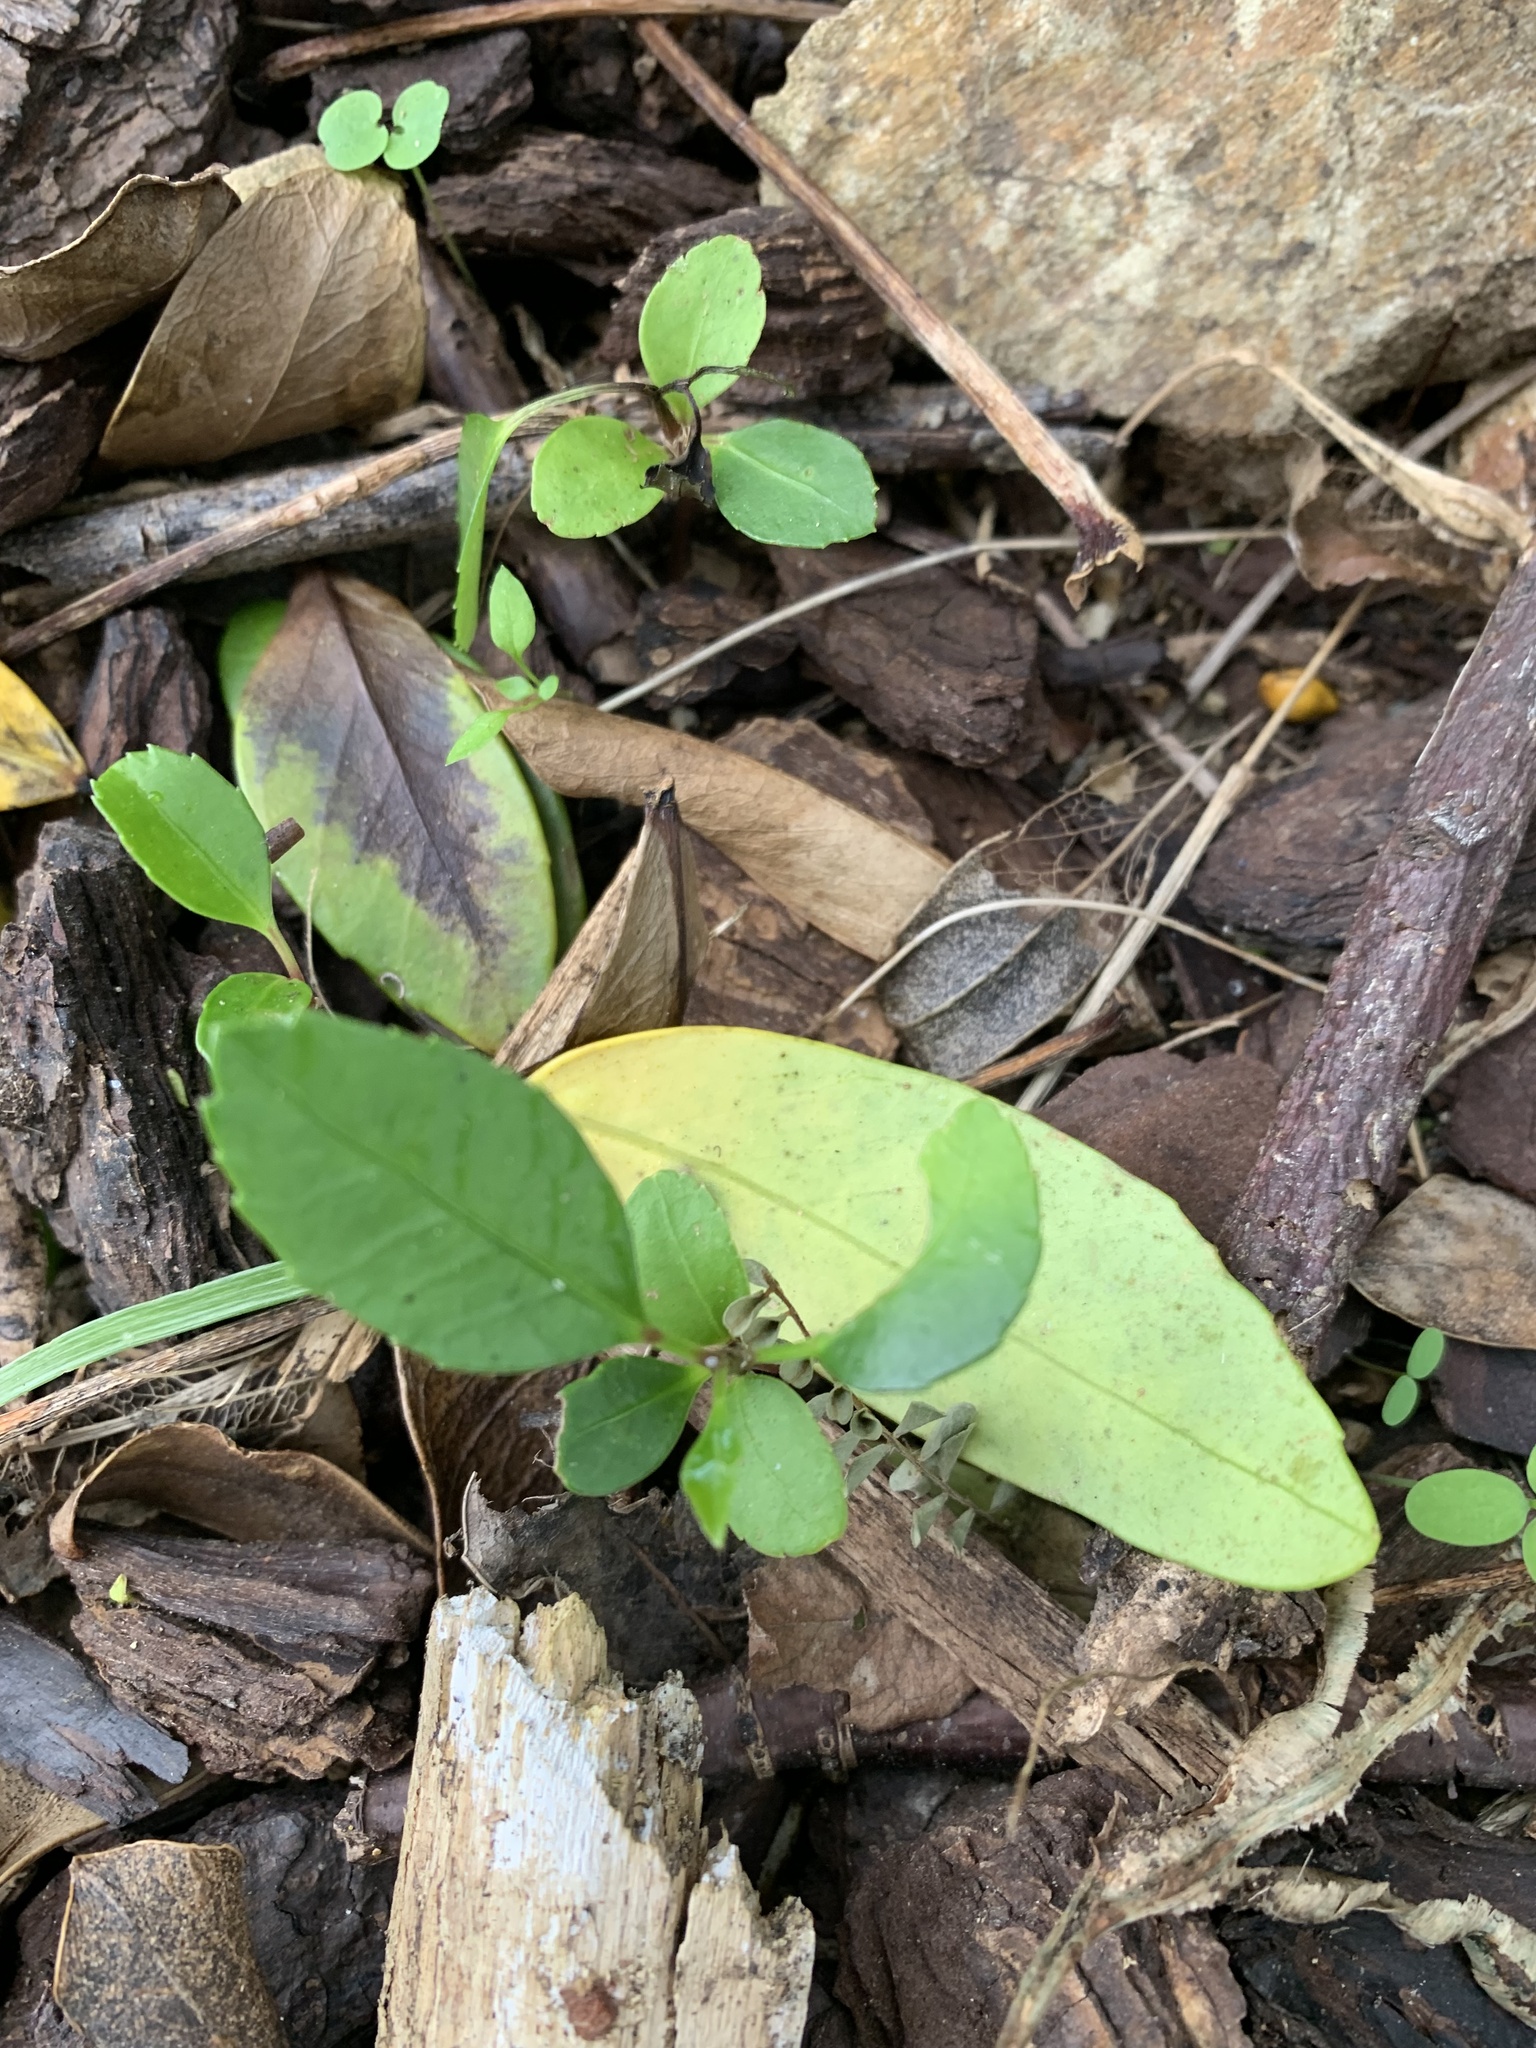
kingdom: Plantae
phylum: Tracheophyta
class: Magnoliopsida
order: Malpighiales
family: Violaceae
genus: Melicytus
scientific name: Melicytus ramiflorus
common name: Mahoe
